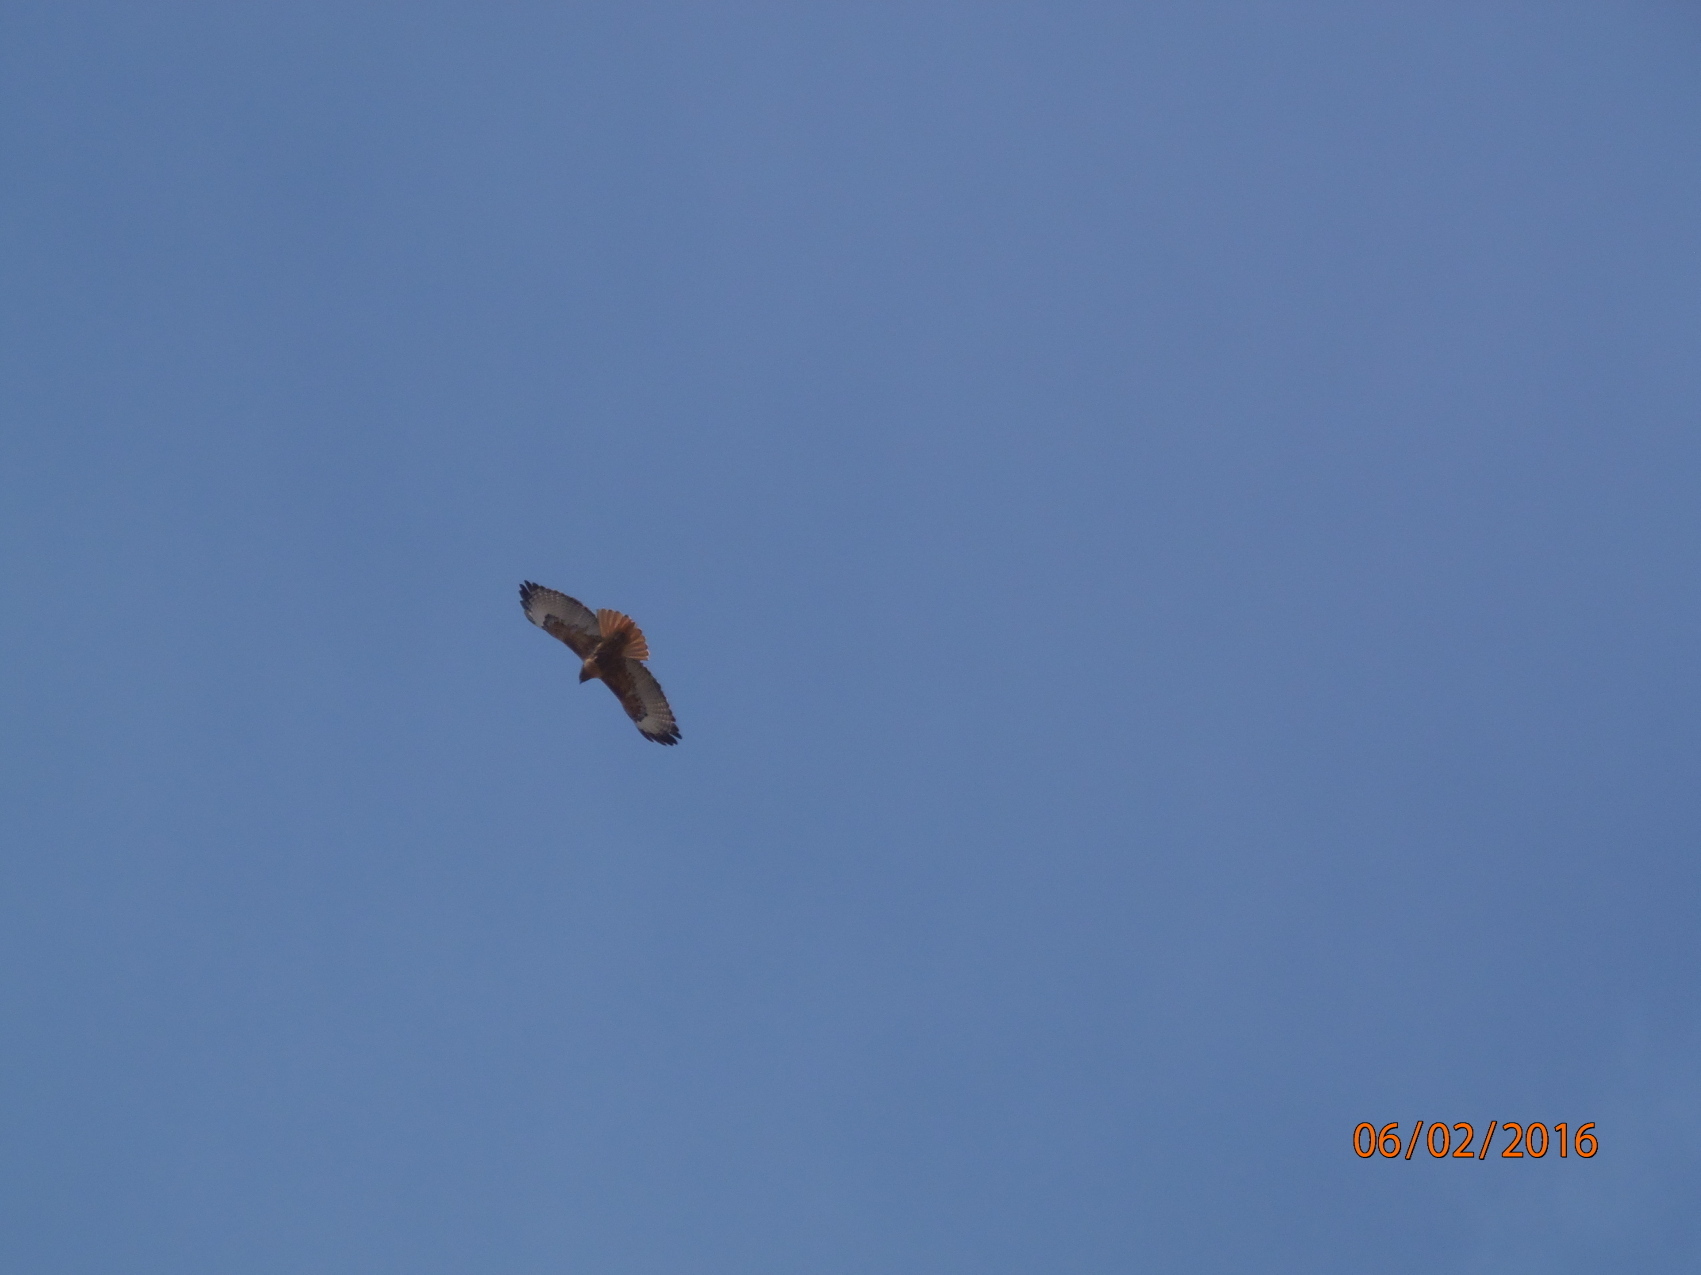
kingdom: Animalia
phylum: Chordata
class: Aves
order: Accipitriformes
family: Accipitridae
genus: Buteo
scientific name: Buteo jamaicensis
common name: Red-tailed hawk
